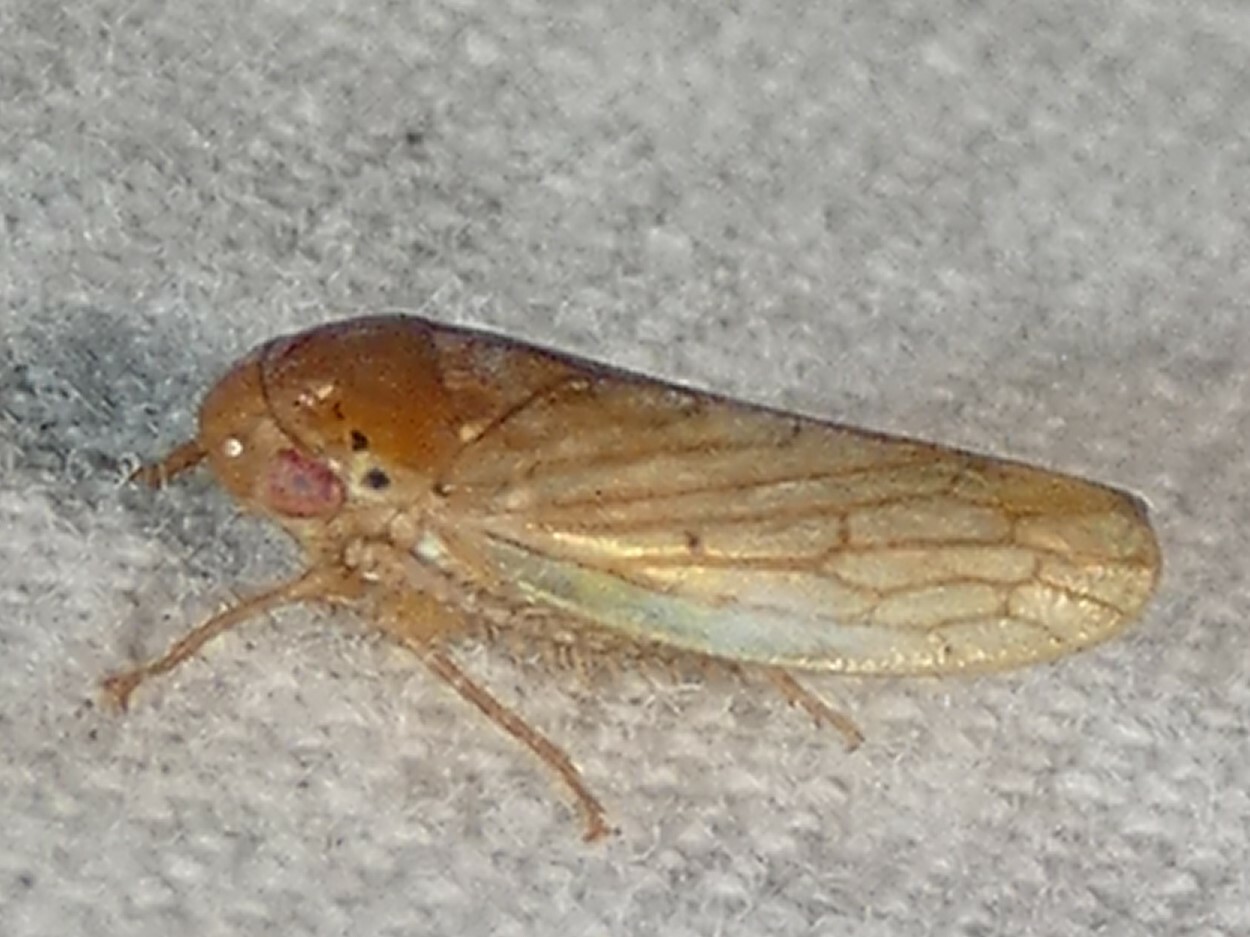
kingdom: Animalia
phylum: Arthropoda
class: Insecta
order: Hemiptera
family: Cicadellidae
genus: Polana
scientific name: Polana quadrinotata
